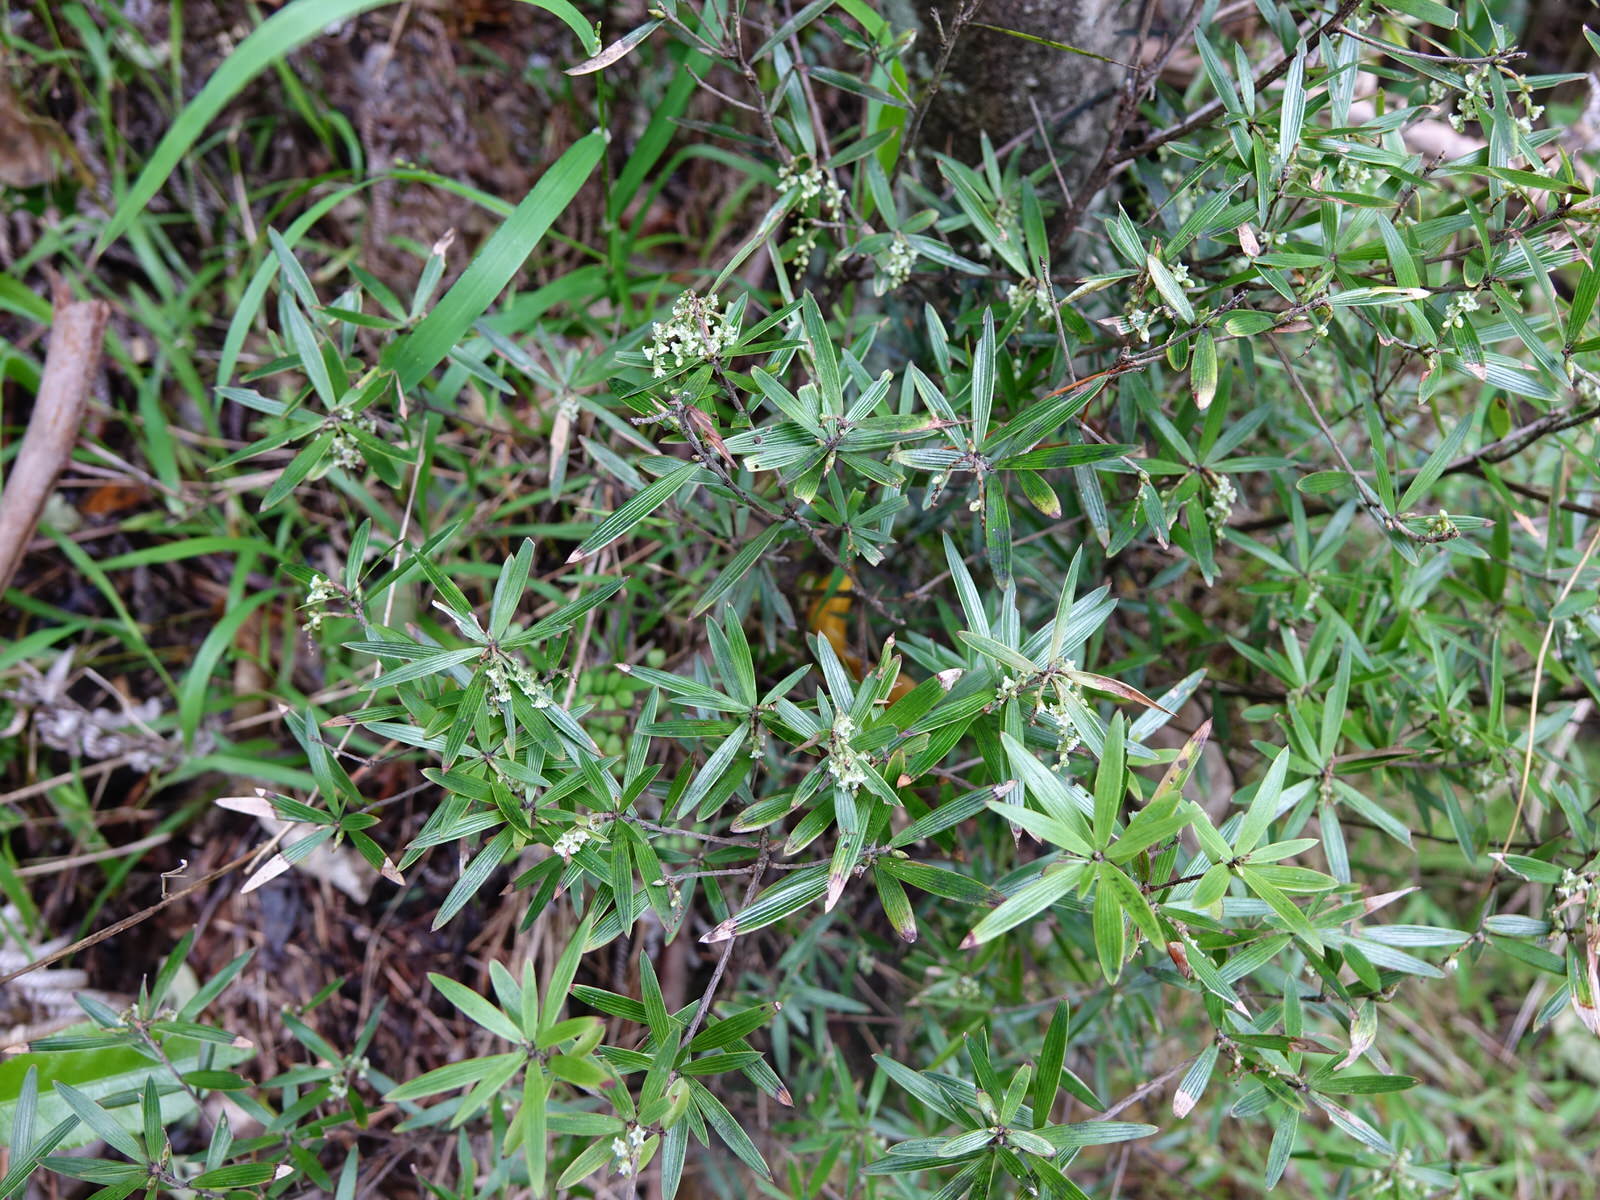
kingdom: Plantae
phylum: Tracheophyta
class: Magnoliopsida
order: Ericales
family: Ericaceae
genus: Leucopogon
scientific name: Leucopogon fasciculatus
